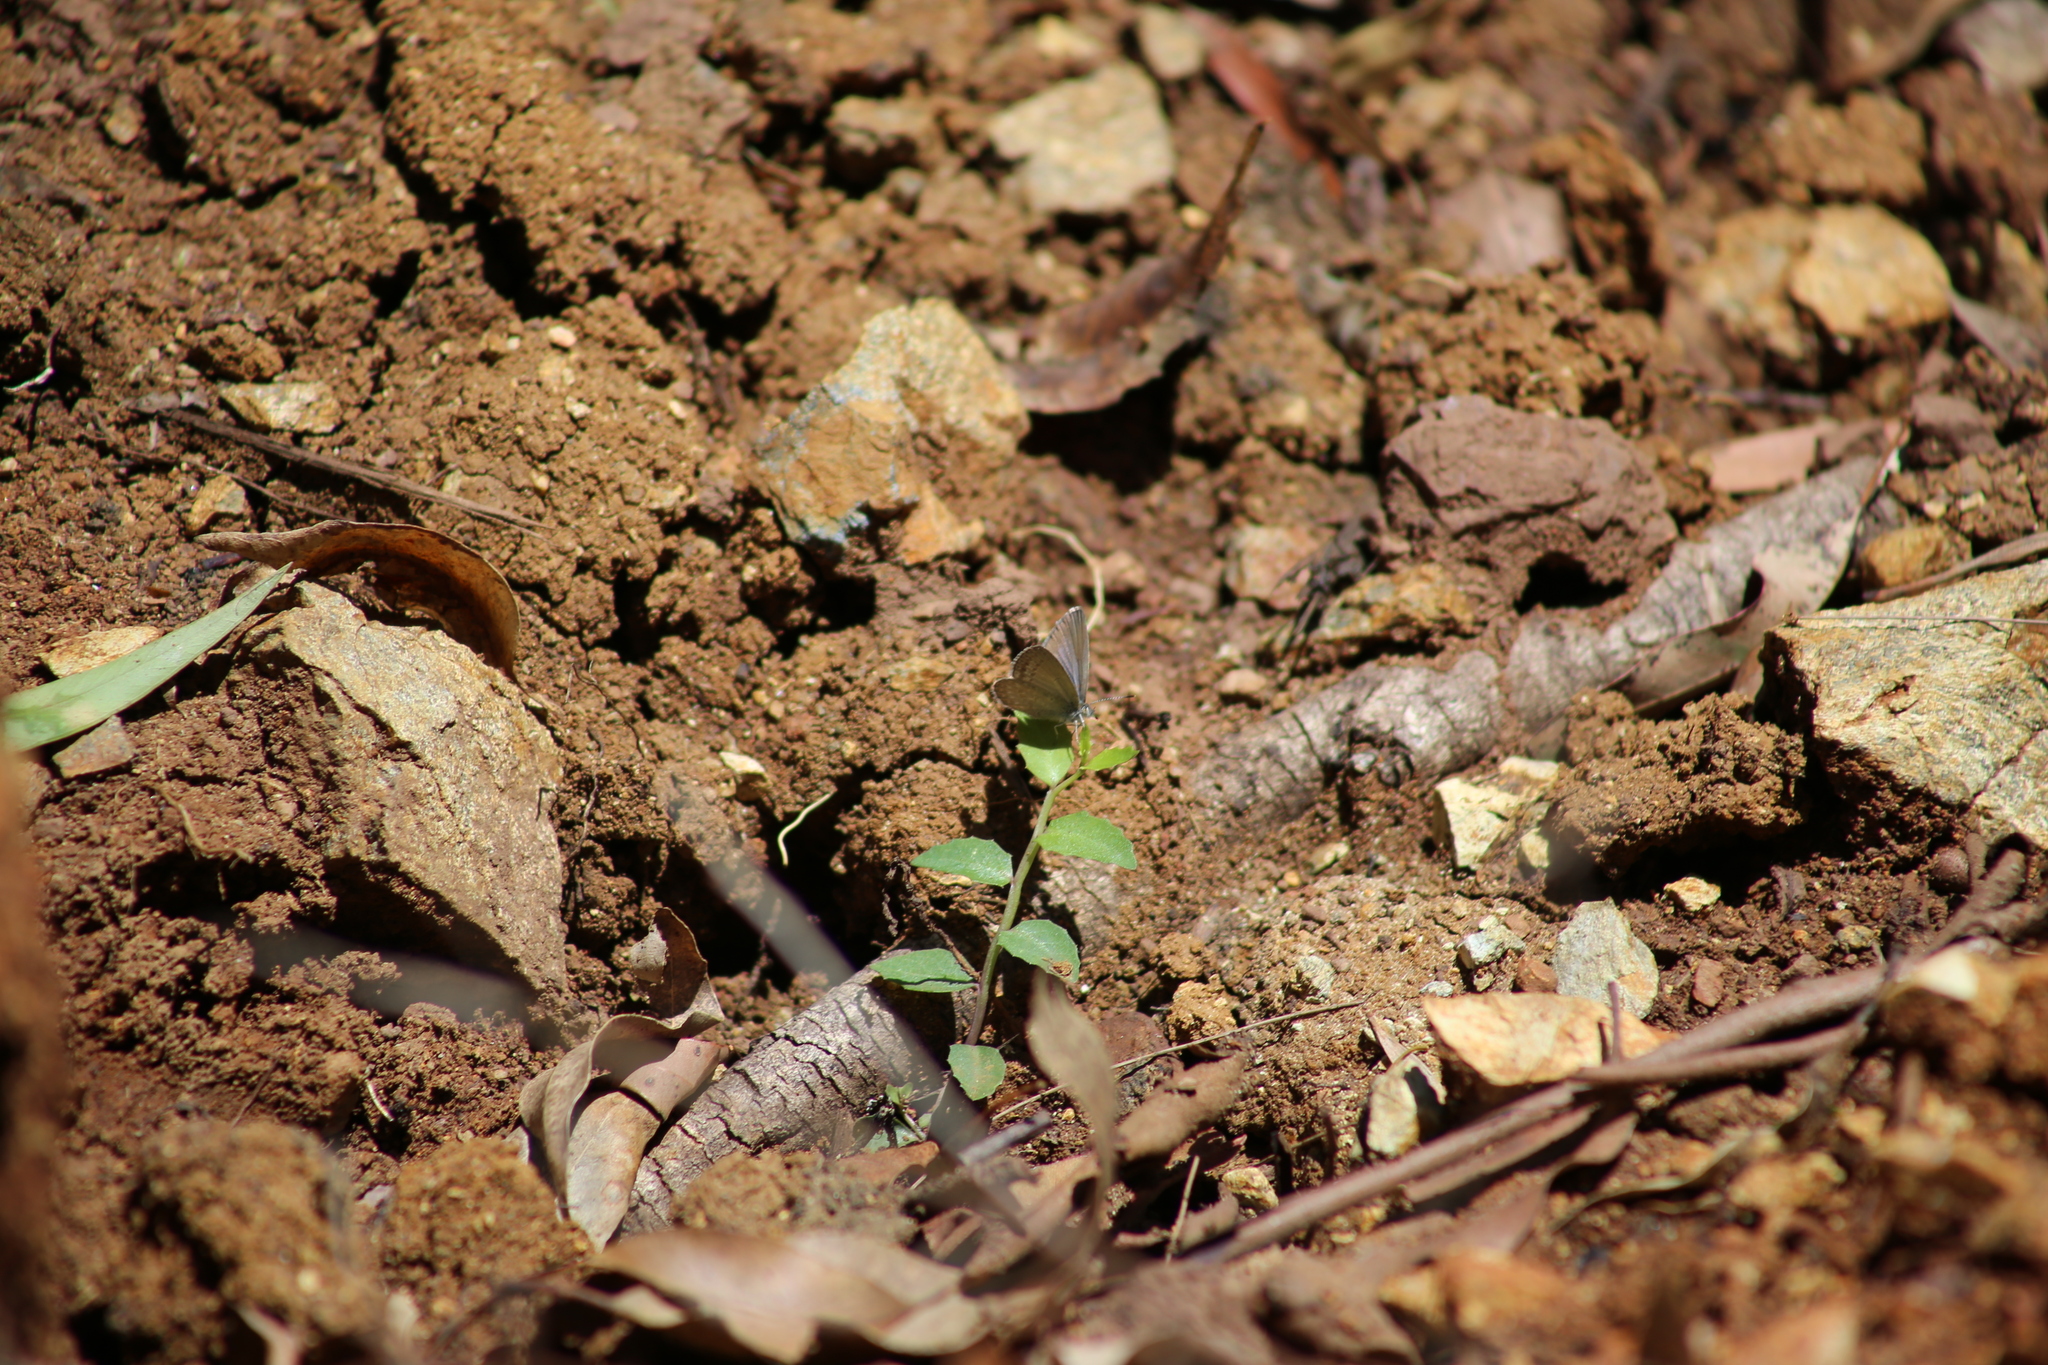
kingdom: Animalia
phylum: Arthropoda
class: Insecta
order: Lepidoptera
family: Lycaenidae
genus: Zizina
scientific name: Zizina labradus
